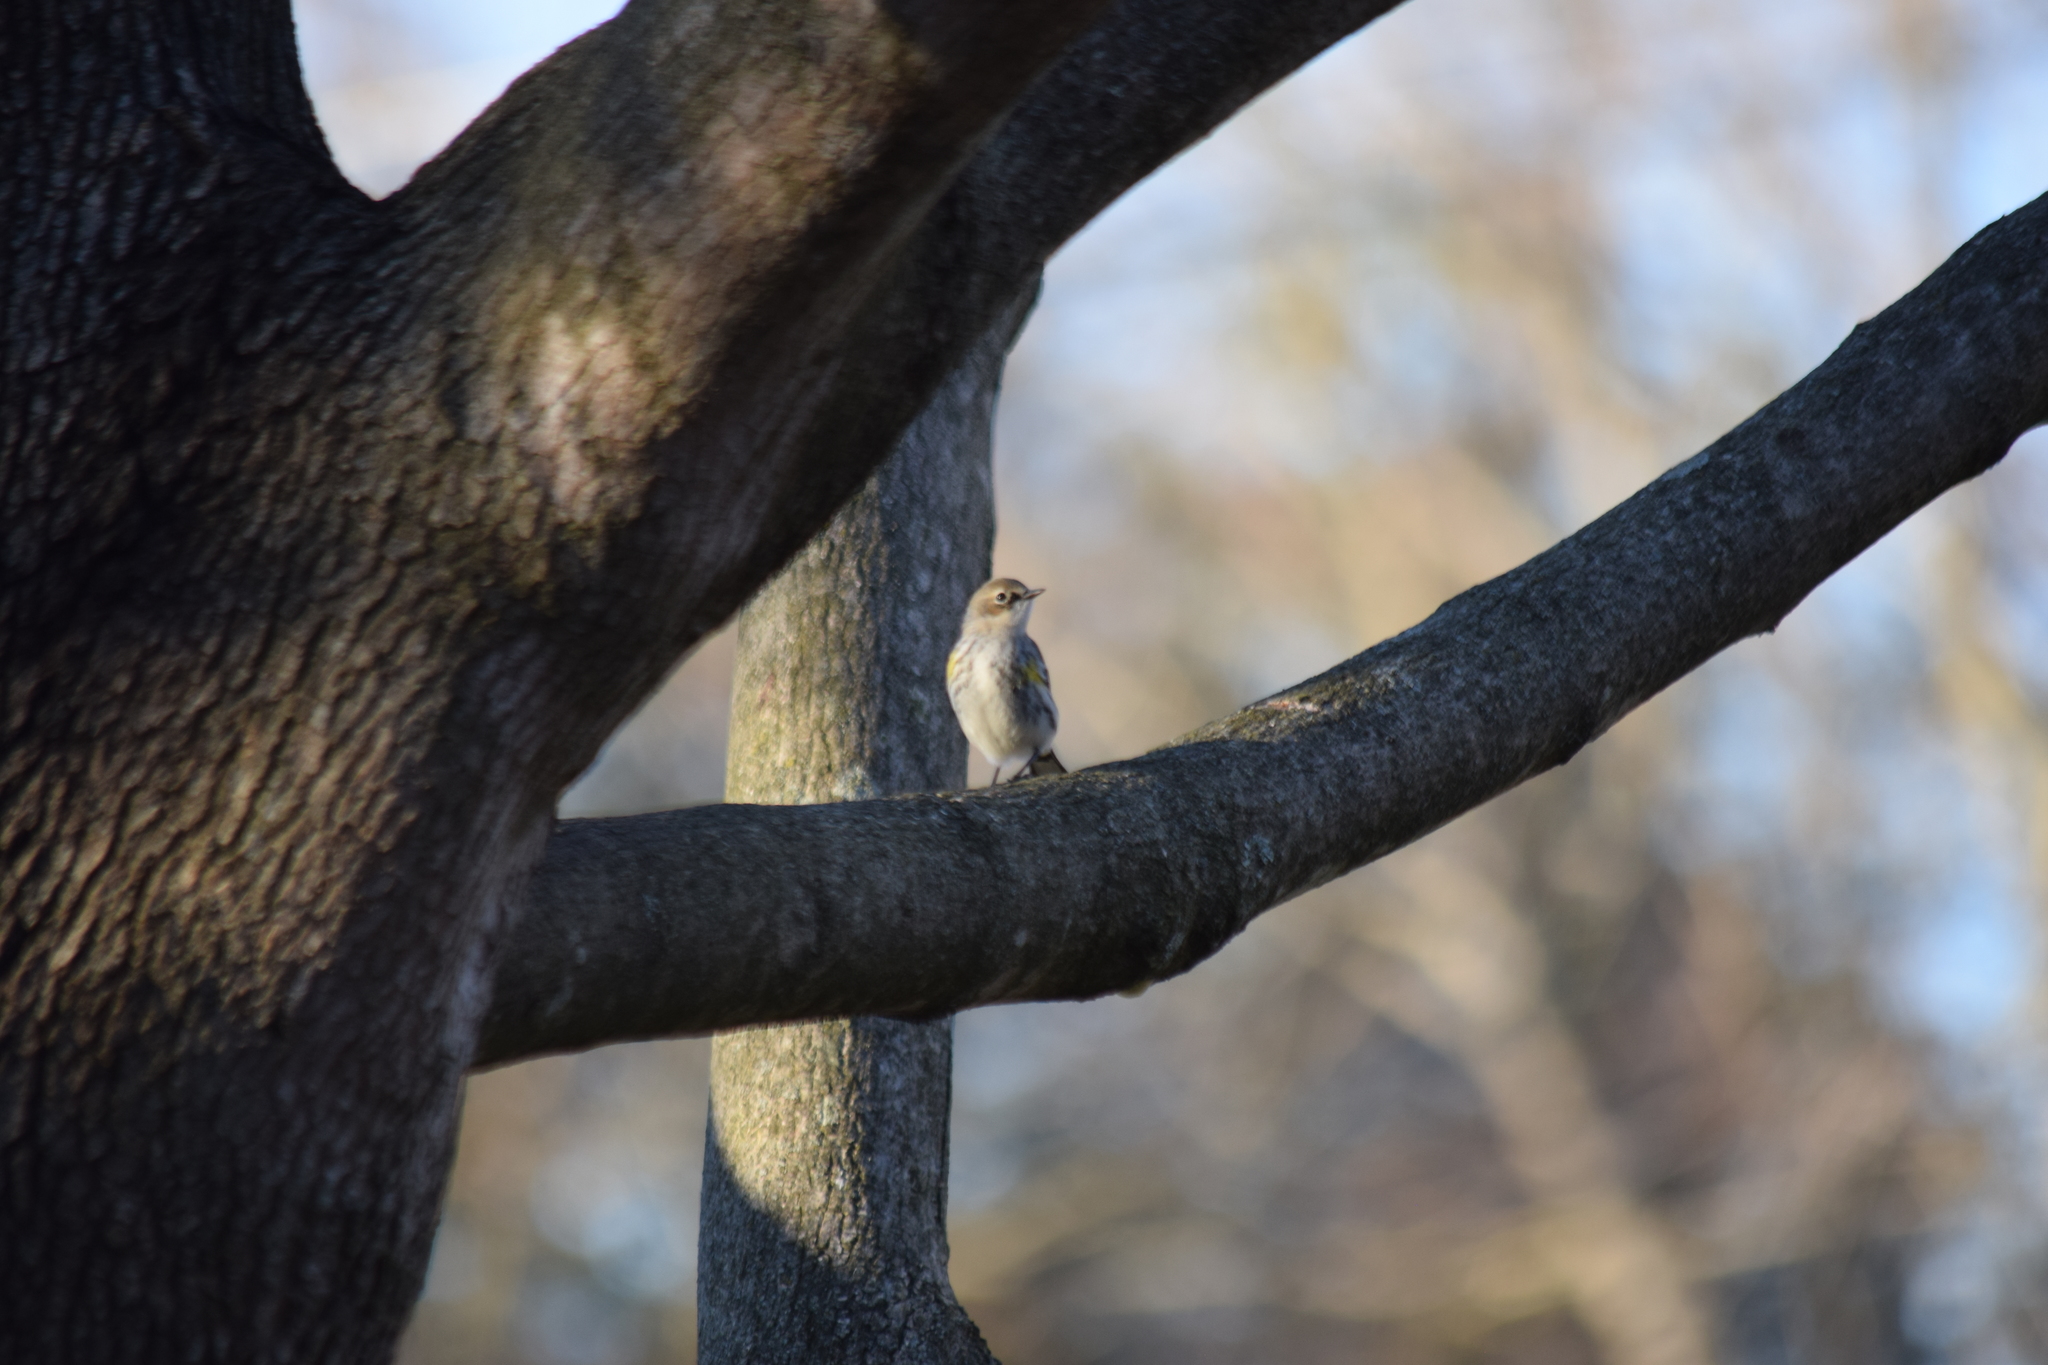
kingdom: Animalia
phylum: Chordata
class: Aves
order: Passeriformes
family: Parulidae
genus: Setophaga
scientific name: Setophaga coronata
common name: Myrtle warbler
